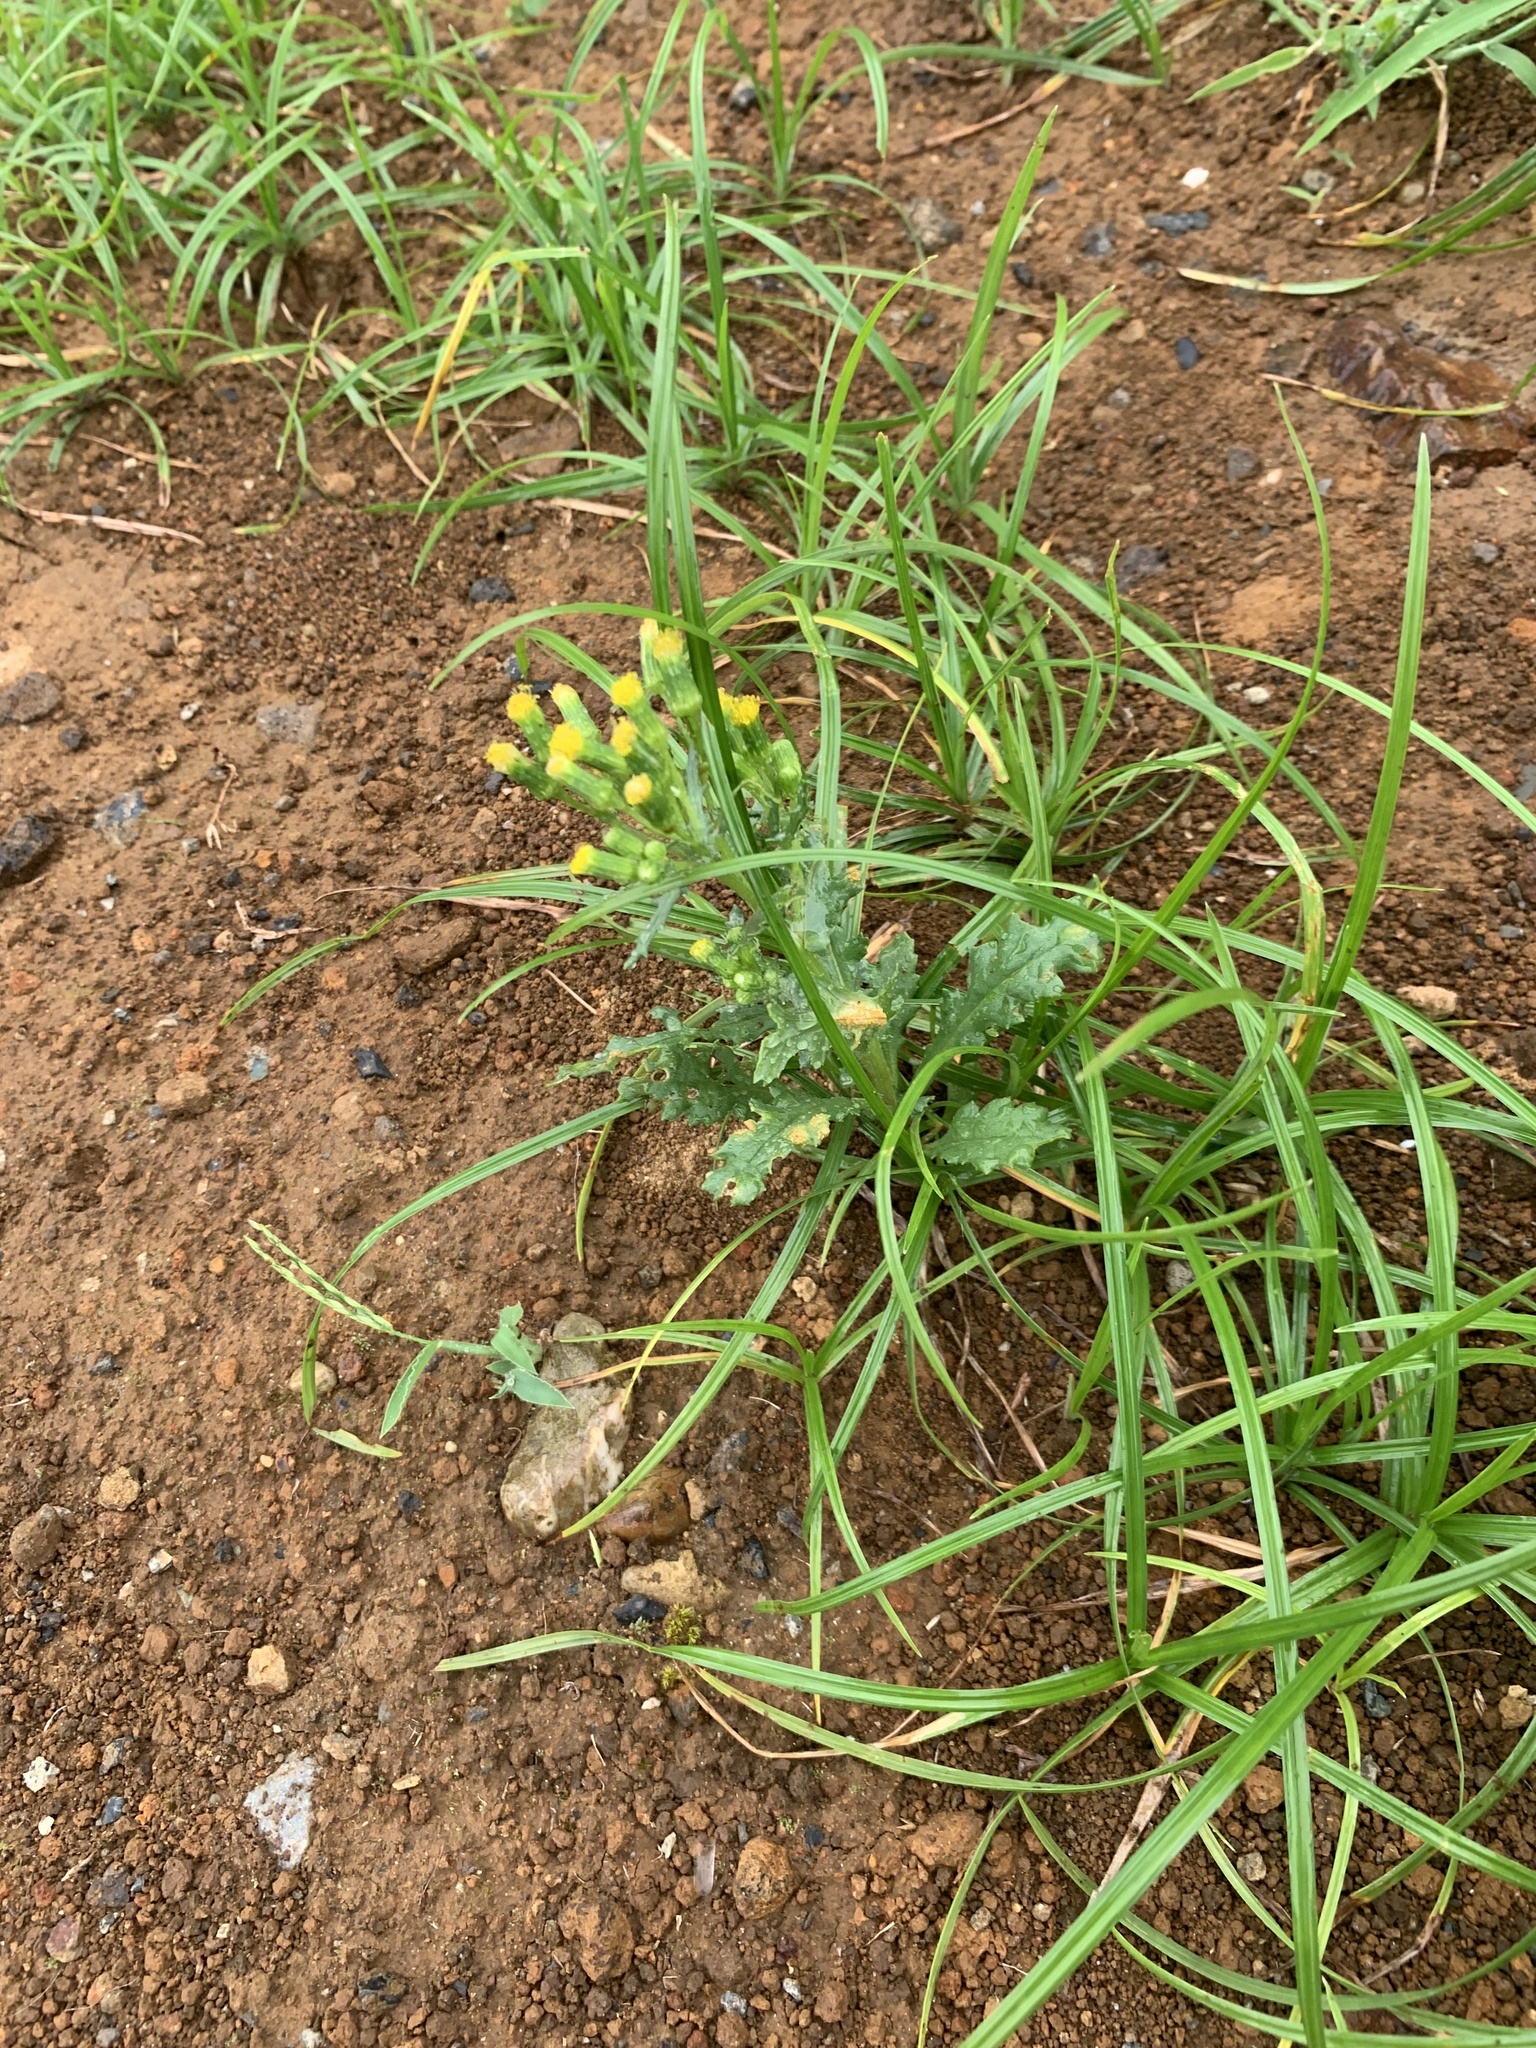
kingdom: Plantae
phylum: Tracheophyta
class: Magnoliopsida
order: Asterales
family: Asteraceae
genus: Senecio
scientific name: Senecio vulgaris
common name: Old-man-in-the-spring
